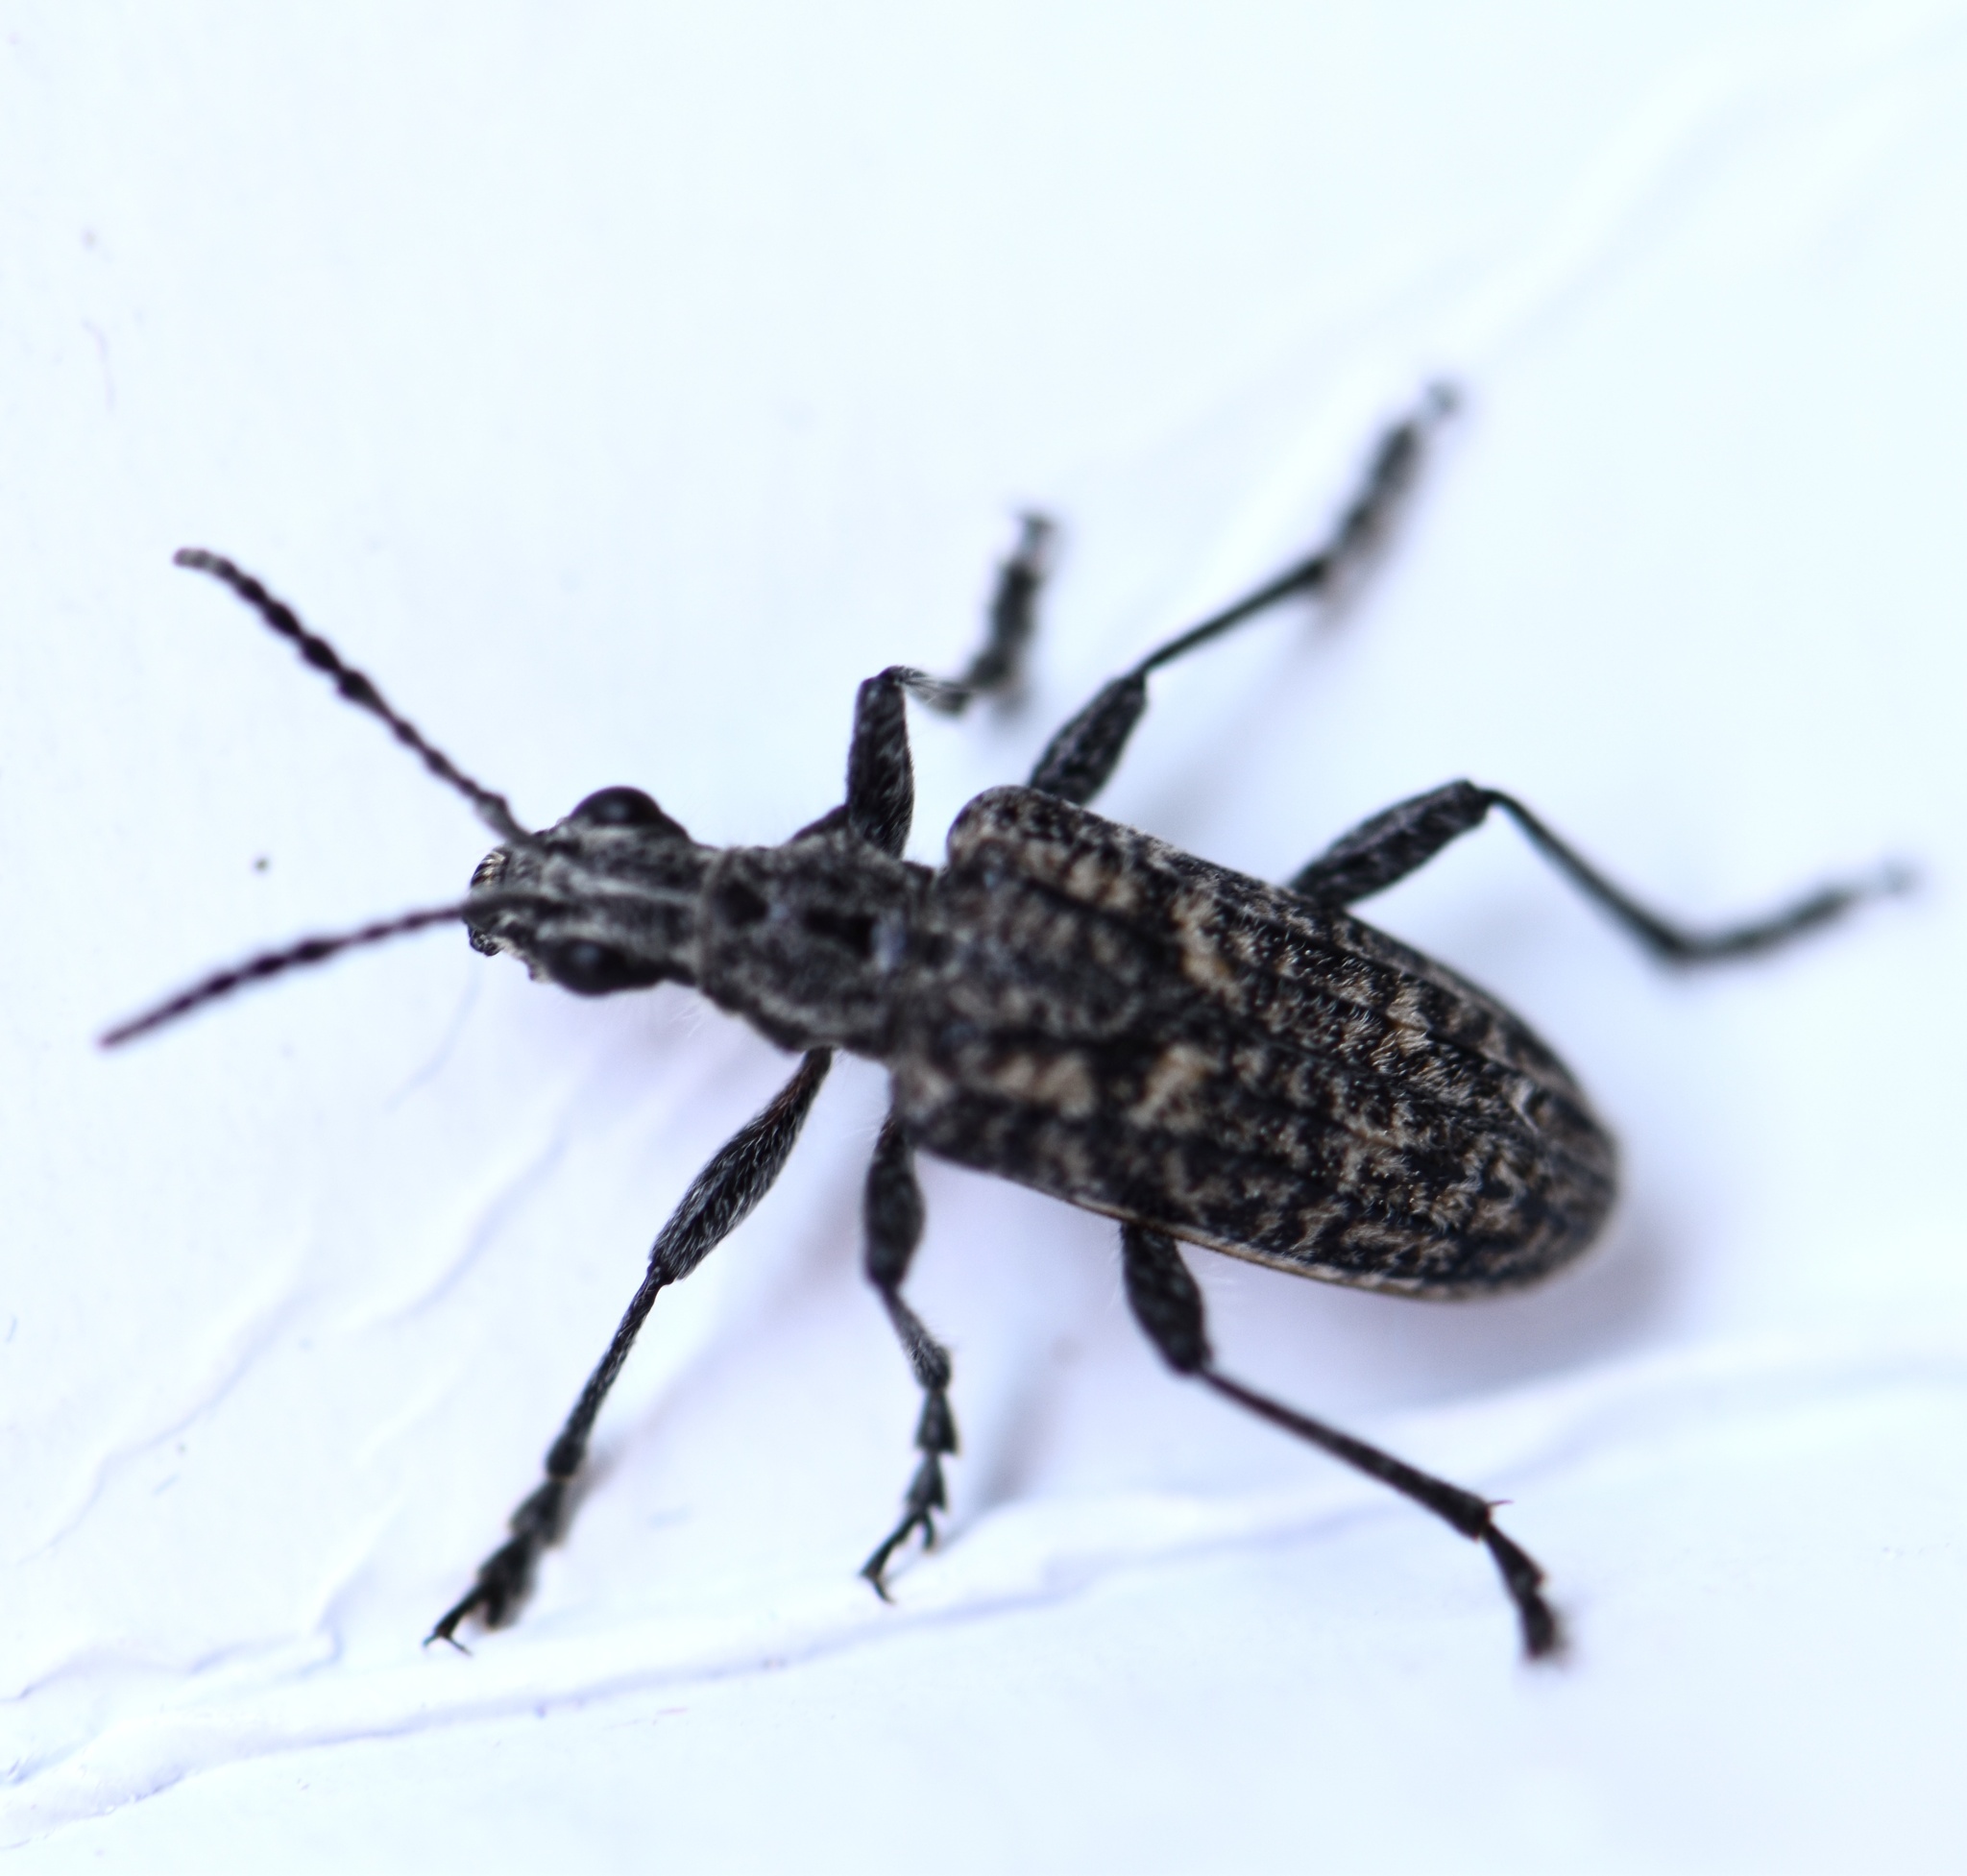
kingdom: Animalia
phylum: Arthropoda
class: Insecta
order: Coleoptera
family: Cerambycidae
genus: Rhagium
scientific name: Rhagium inquisitor
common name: Ribbed pine borer
